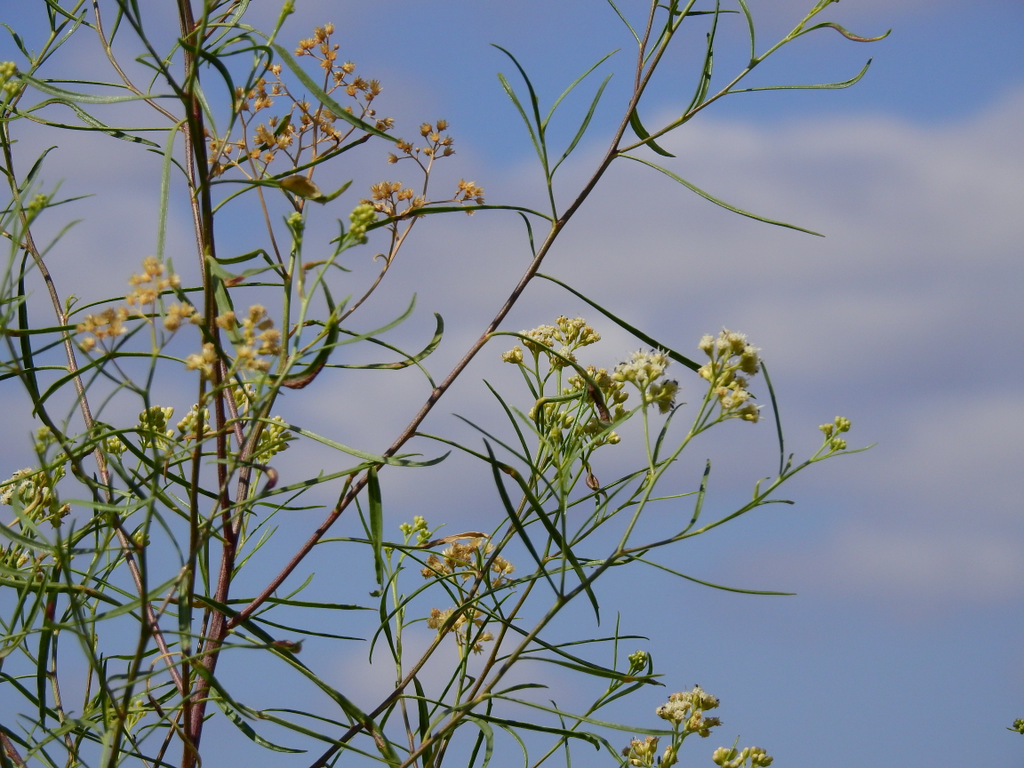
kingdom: Plantae
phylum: Tracheophyta
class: Magnoliopsida
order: Asterales
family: Asteraceae
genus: Baccharis
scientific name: Baccharis salicifolia
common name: Sticky baccharis
